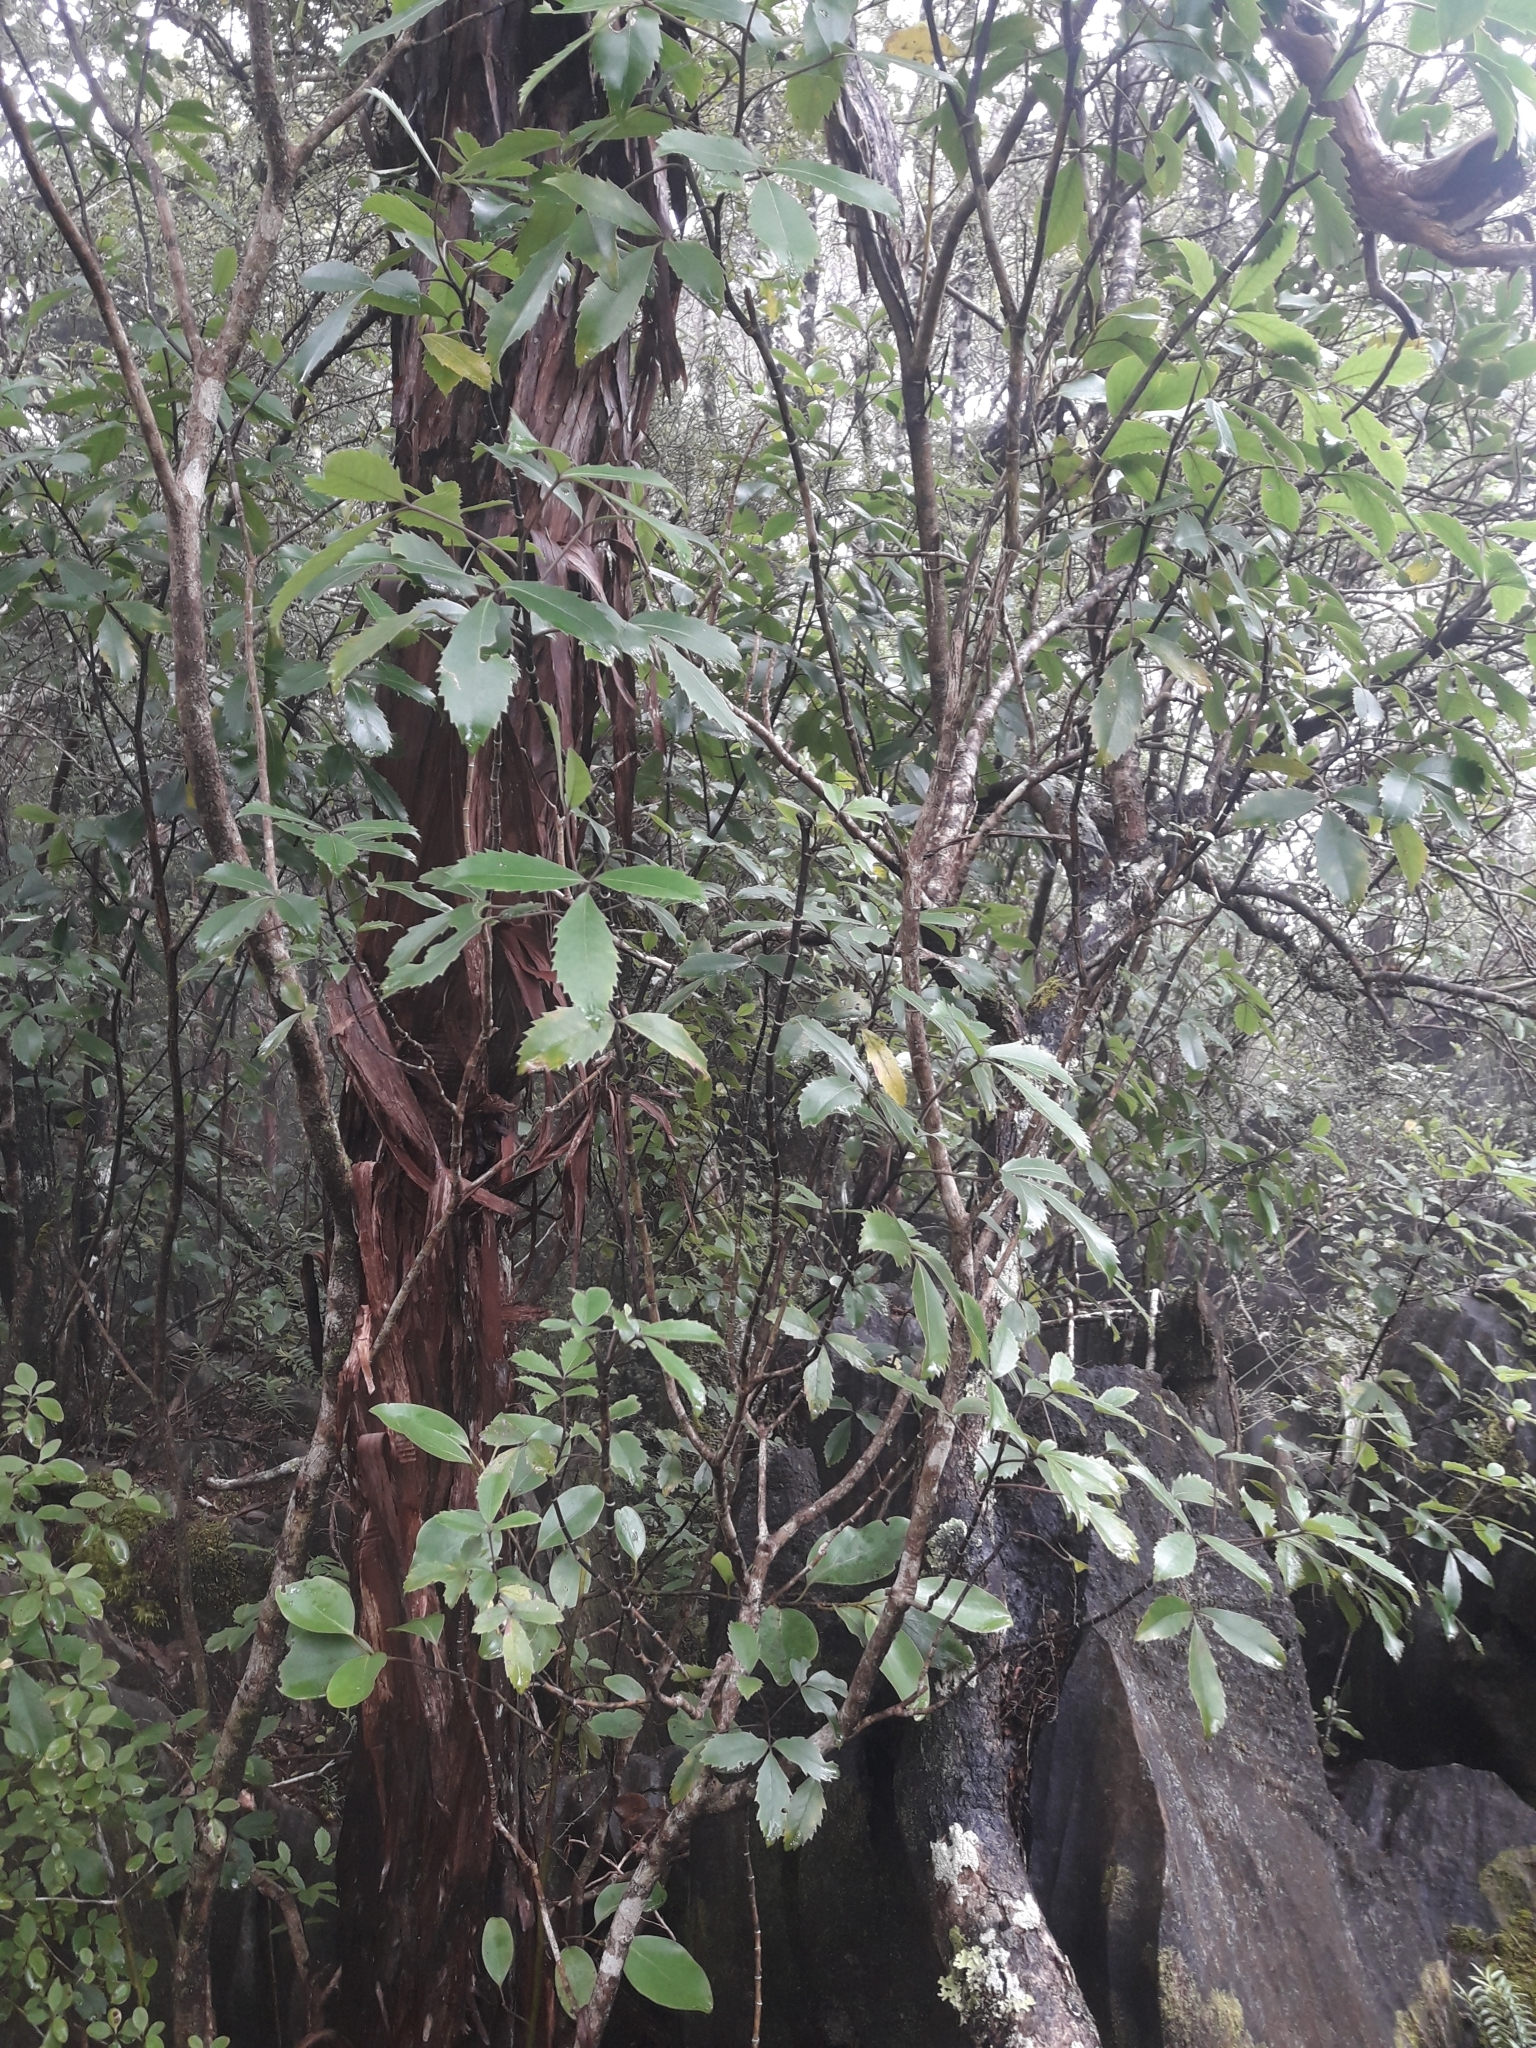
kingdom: Plantae
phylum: Tracheophyta
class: Magnoliopsida
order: Apiales
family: Araliaceae
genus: Neopanax
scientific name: Neopanax macintyrei
